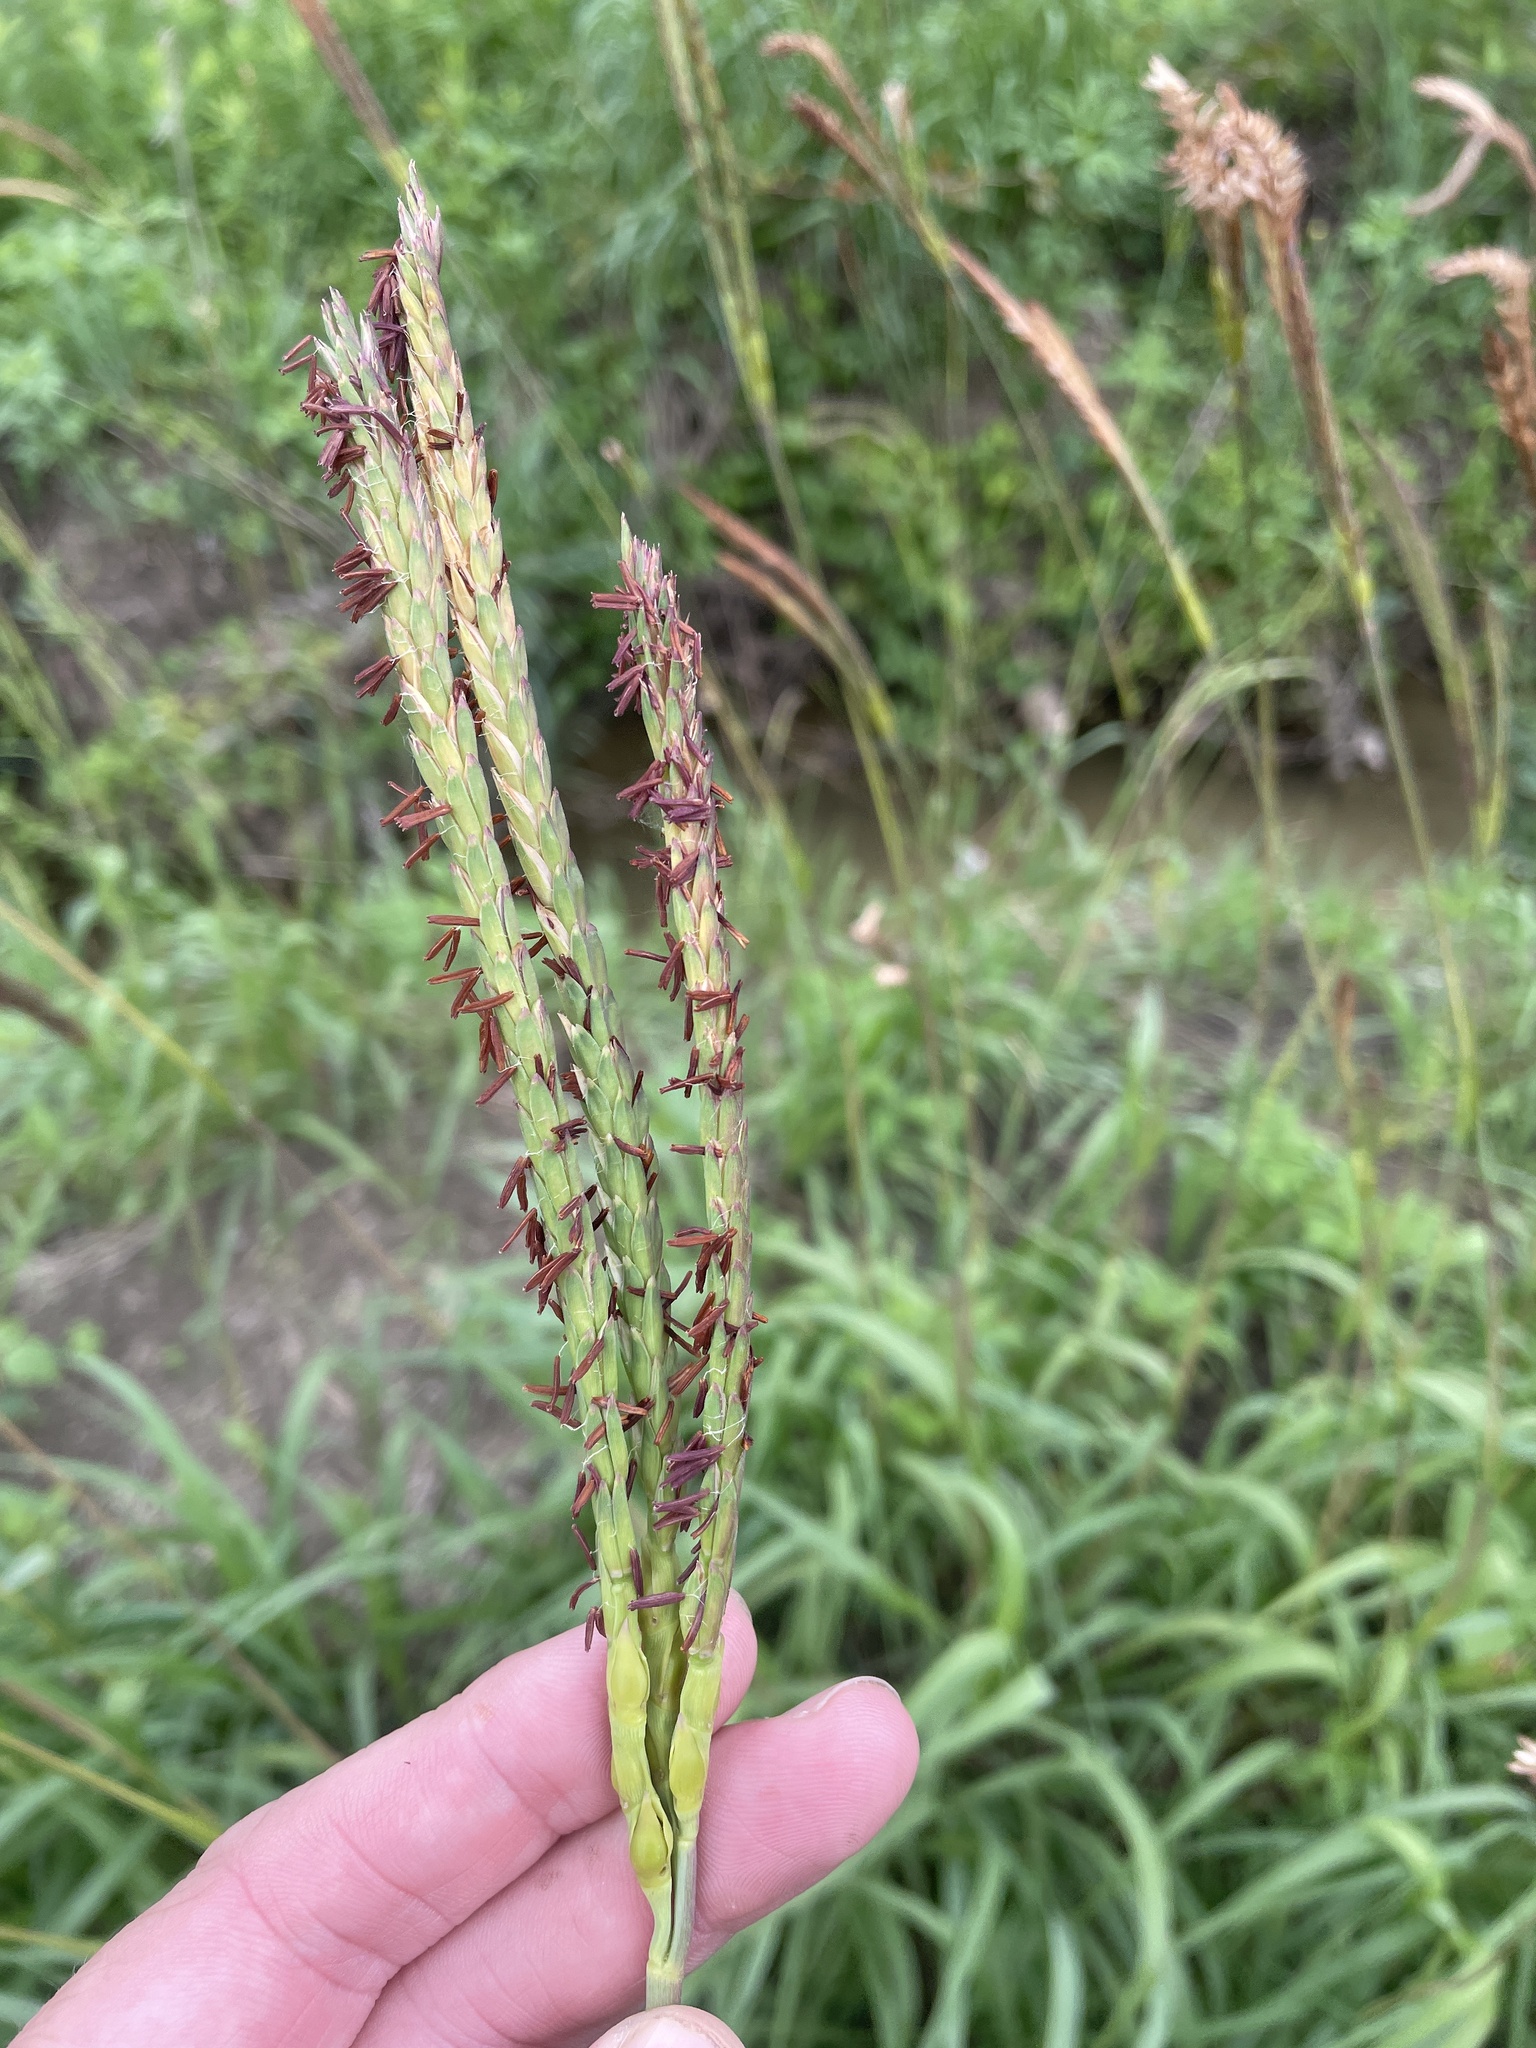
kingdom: Plantae
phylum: Tracheophyta
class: Liliopsida
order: Poales
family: Poaceae
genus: Tripsacum
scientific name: Tripsacum dactyloides
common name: Buffalo-grass
